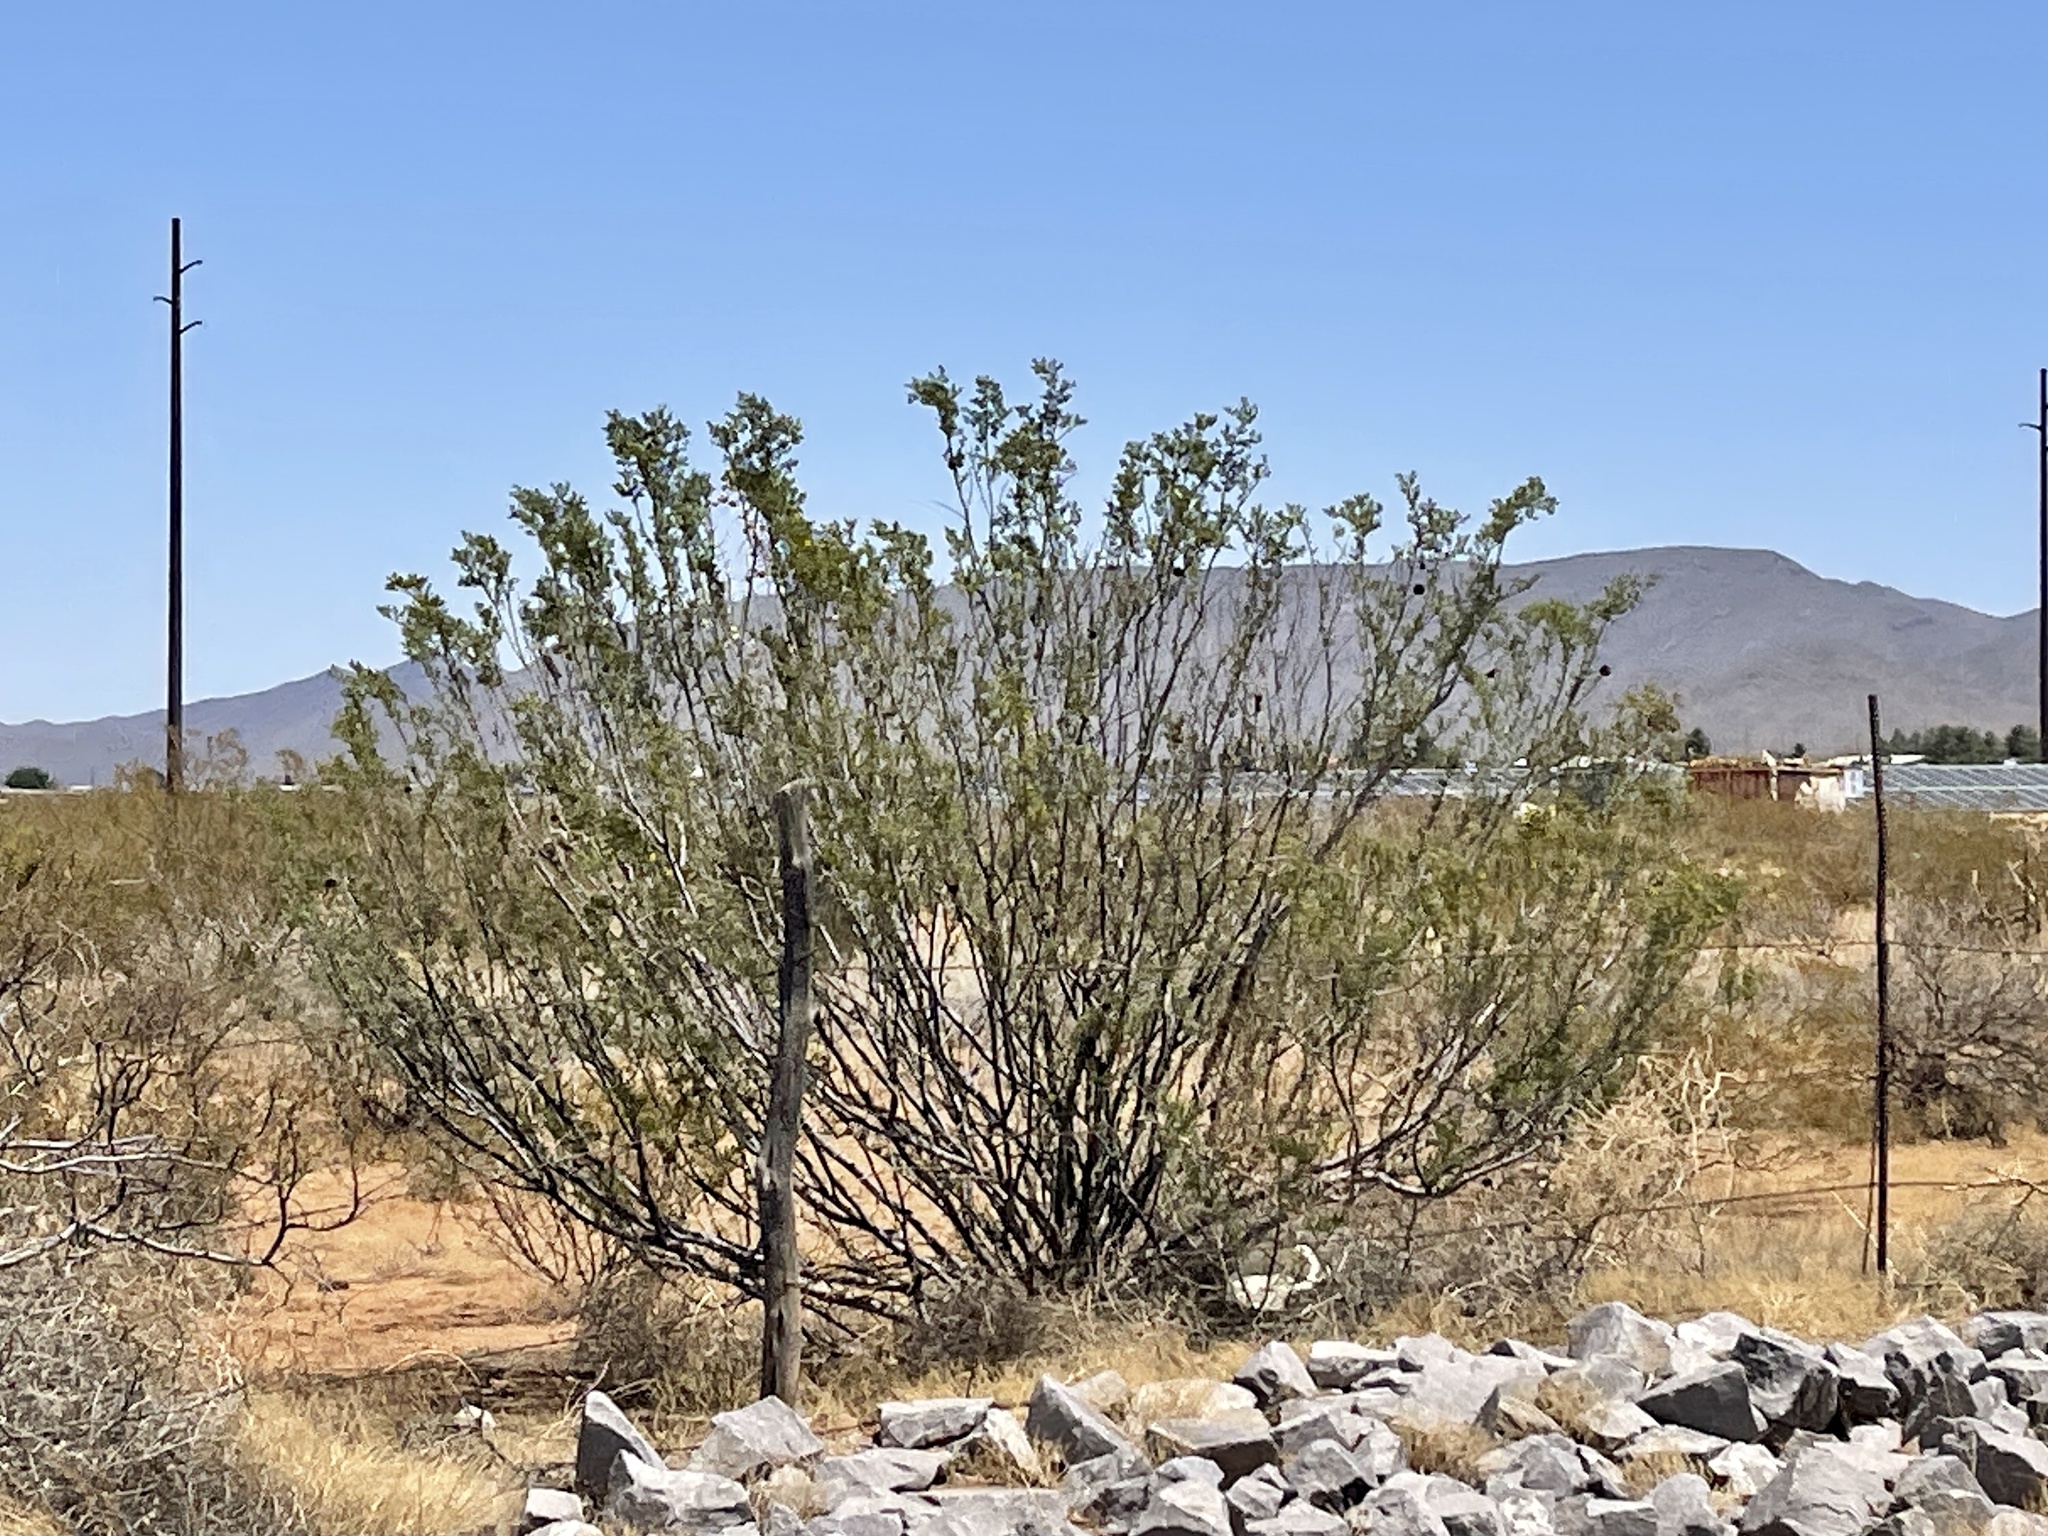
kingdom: Plantae
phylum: Tracheophyta
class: Magnoliopsida
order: Zygophyllales
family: Zygophyllaceae
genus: Larrea
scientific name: Larrea tridentata
